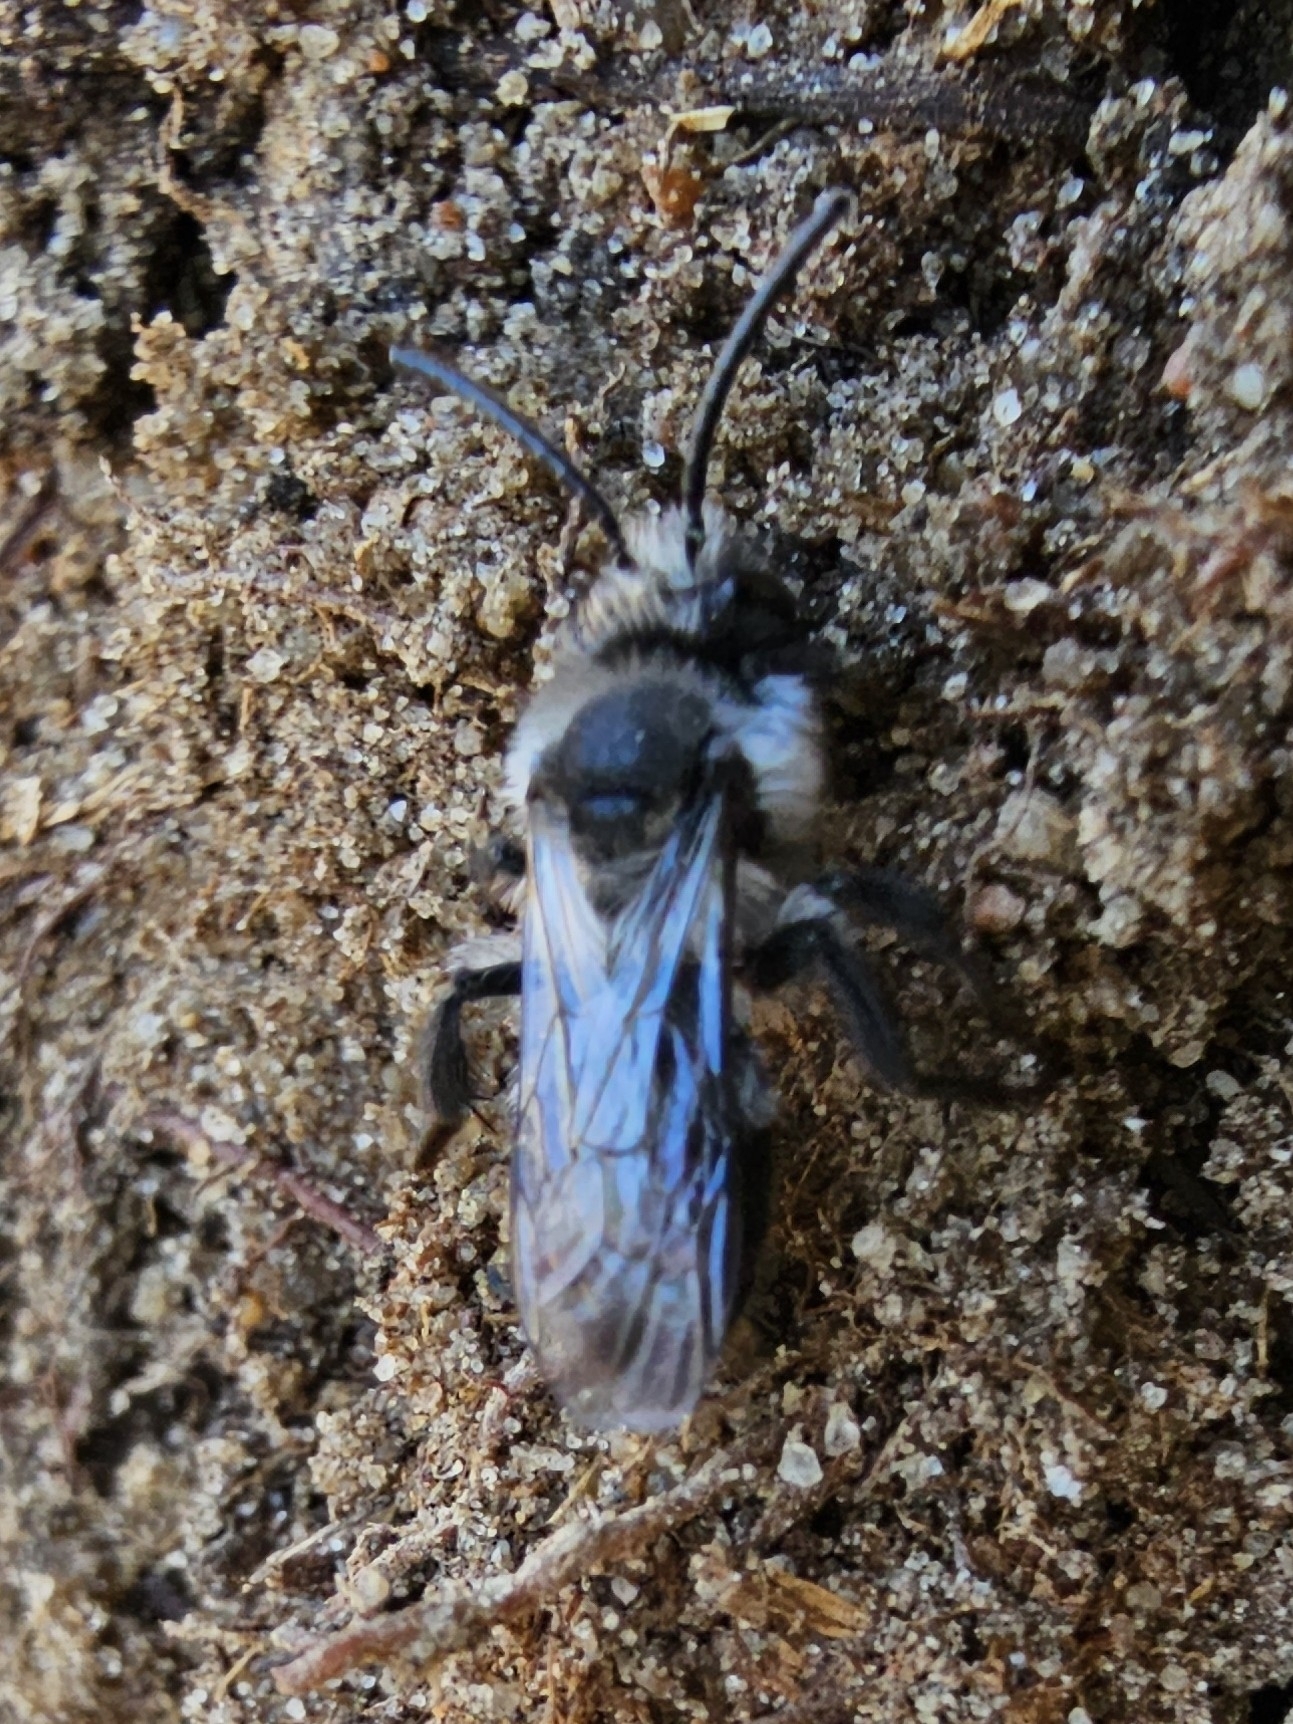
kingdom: Animalia
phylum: Arthropoda
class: Insecta
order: Hymenoptera
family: Andrenidae
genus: Andrena
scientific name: Andrena cineraria
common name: Ashy mining bee
